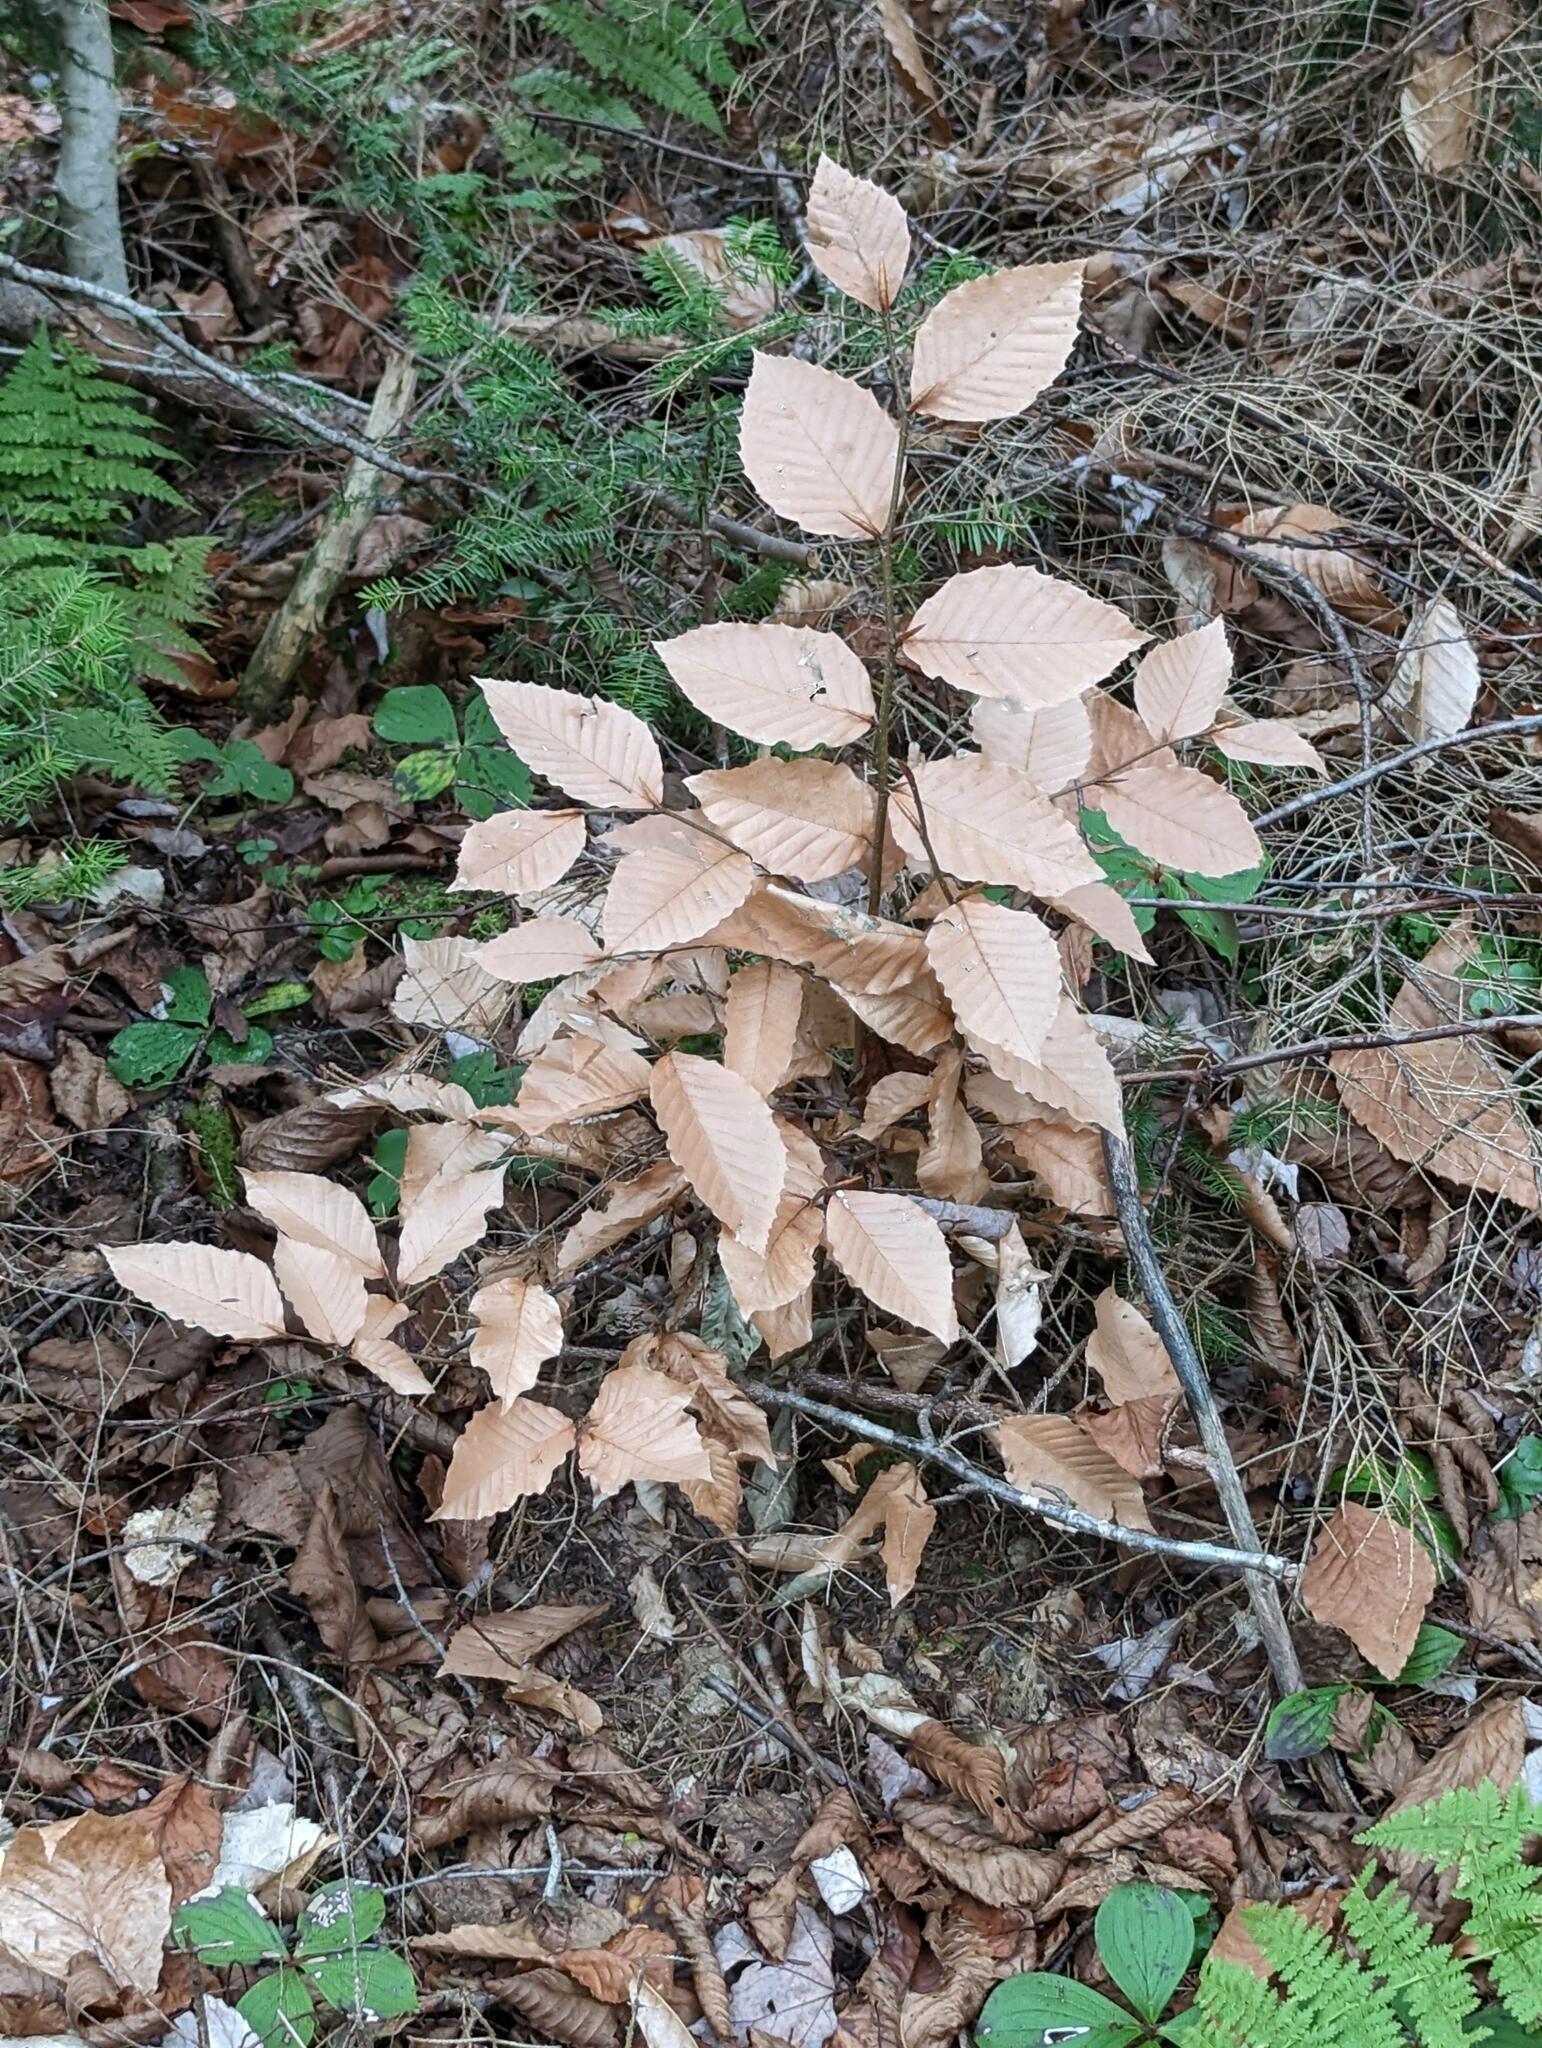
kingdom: Plantae
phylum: Tracheophyta
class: Magnoliopsida
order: Fagales
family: Fagaceae
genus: Fagus
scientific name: Fagus grandifolia
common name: American beech
